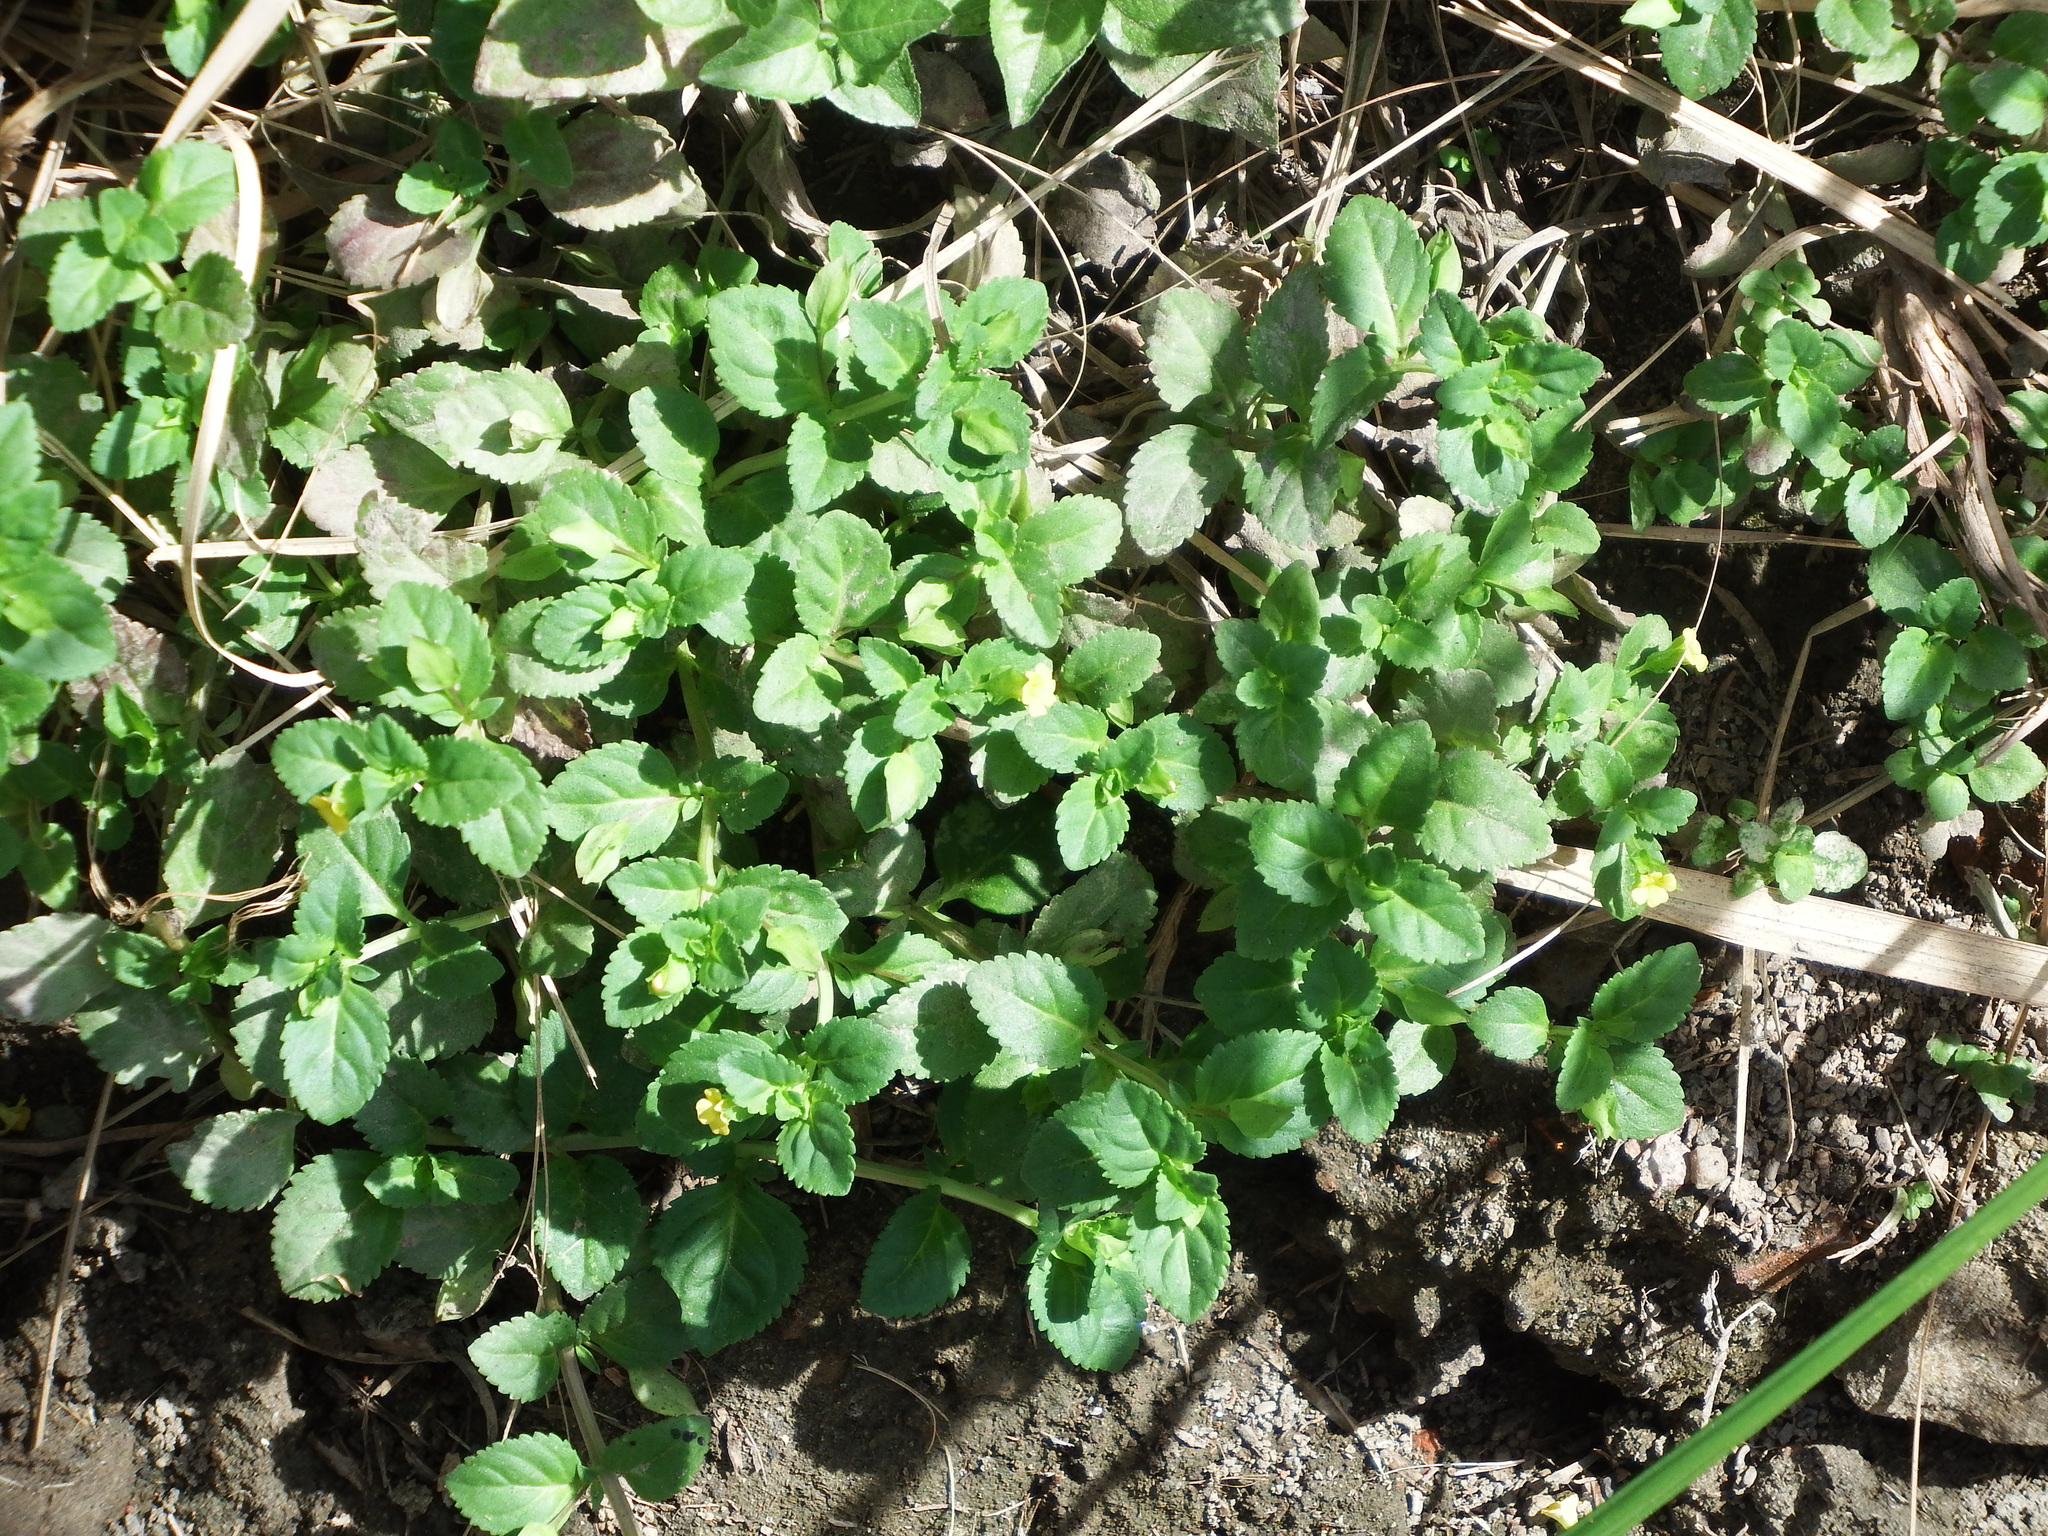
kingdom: Plantae
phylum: Tracheophyta
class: Magnoliopsida
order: Lamiales
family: Plantaginaceae
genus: Mecardonia
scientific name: Mecardonia procumbens
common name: Baby jump-up
